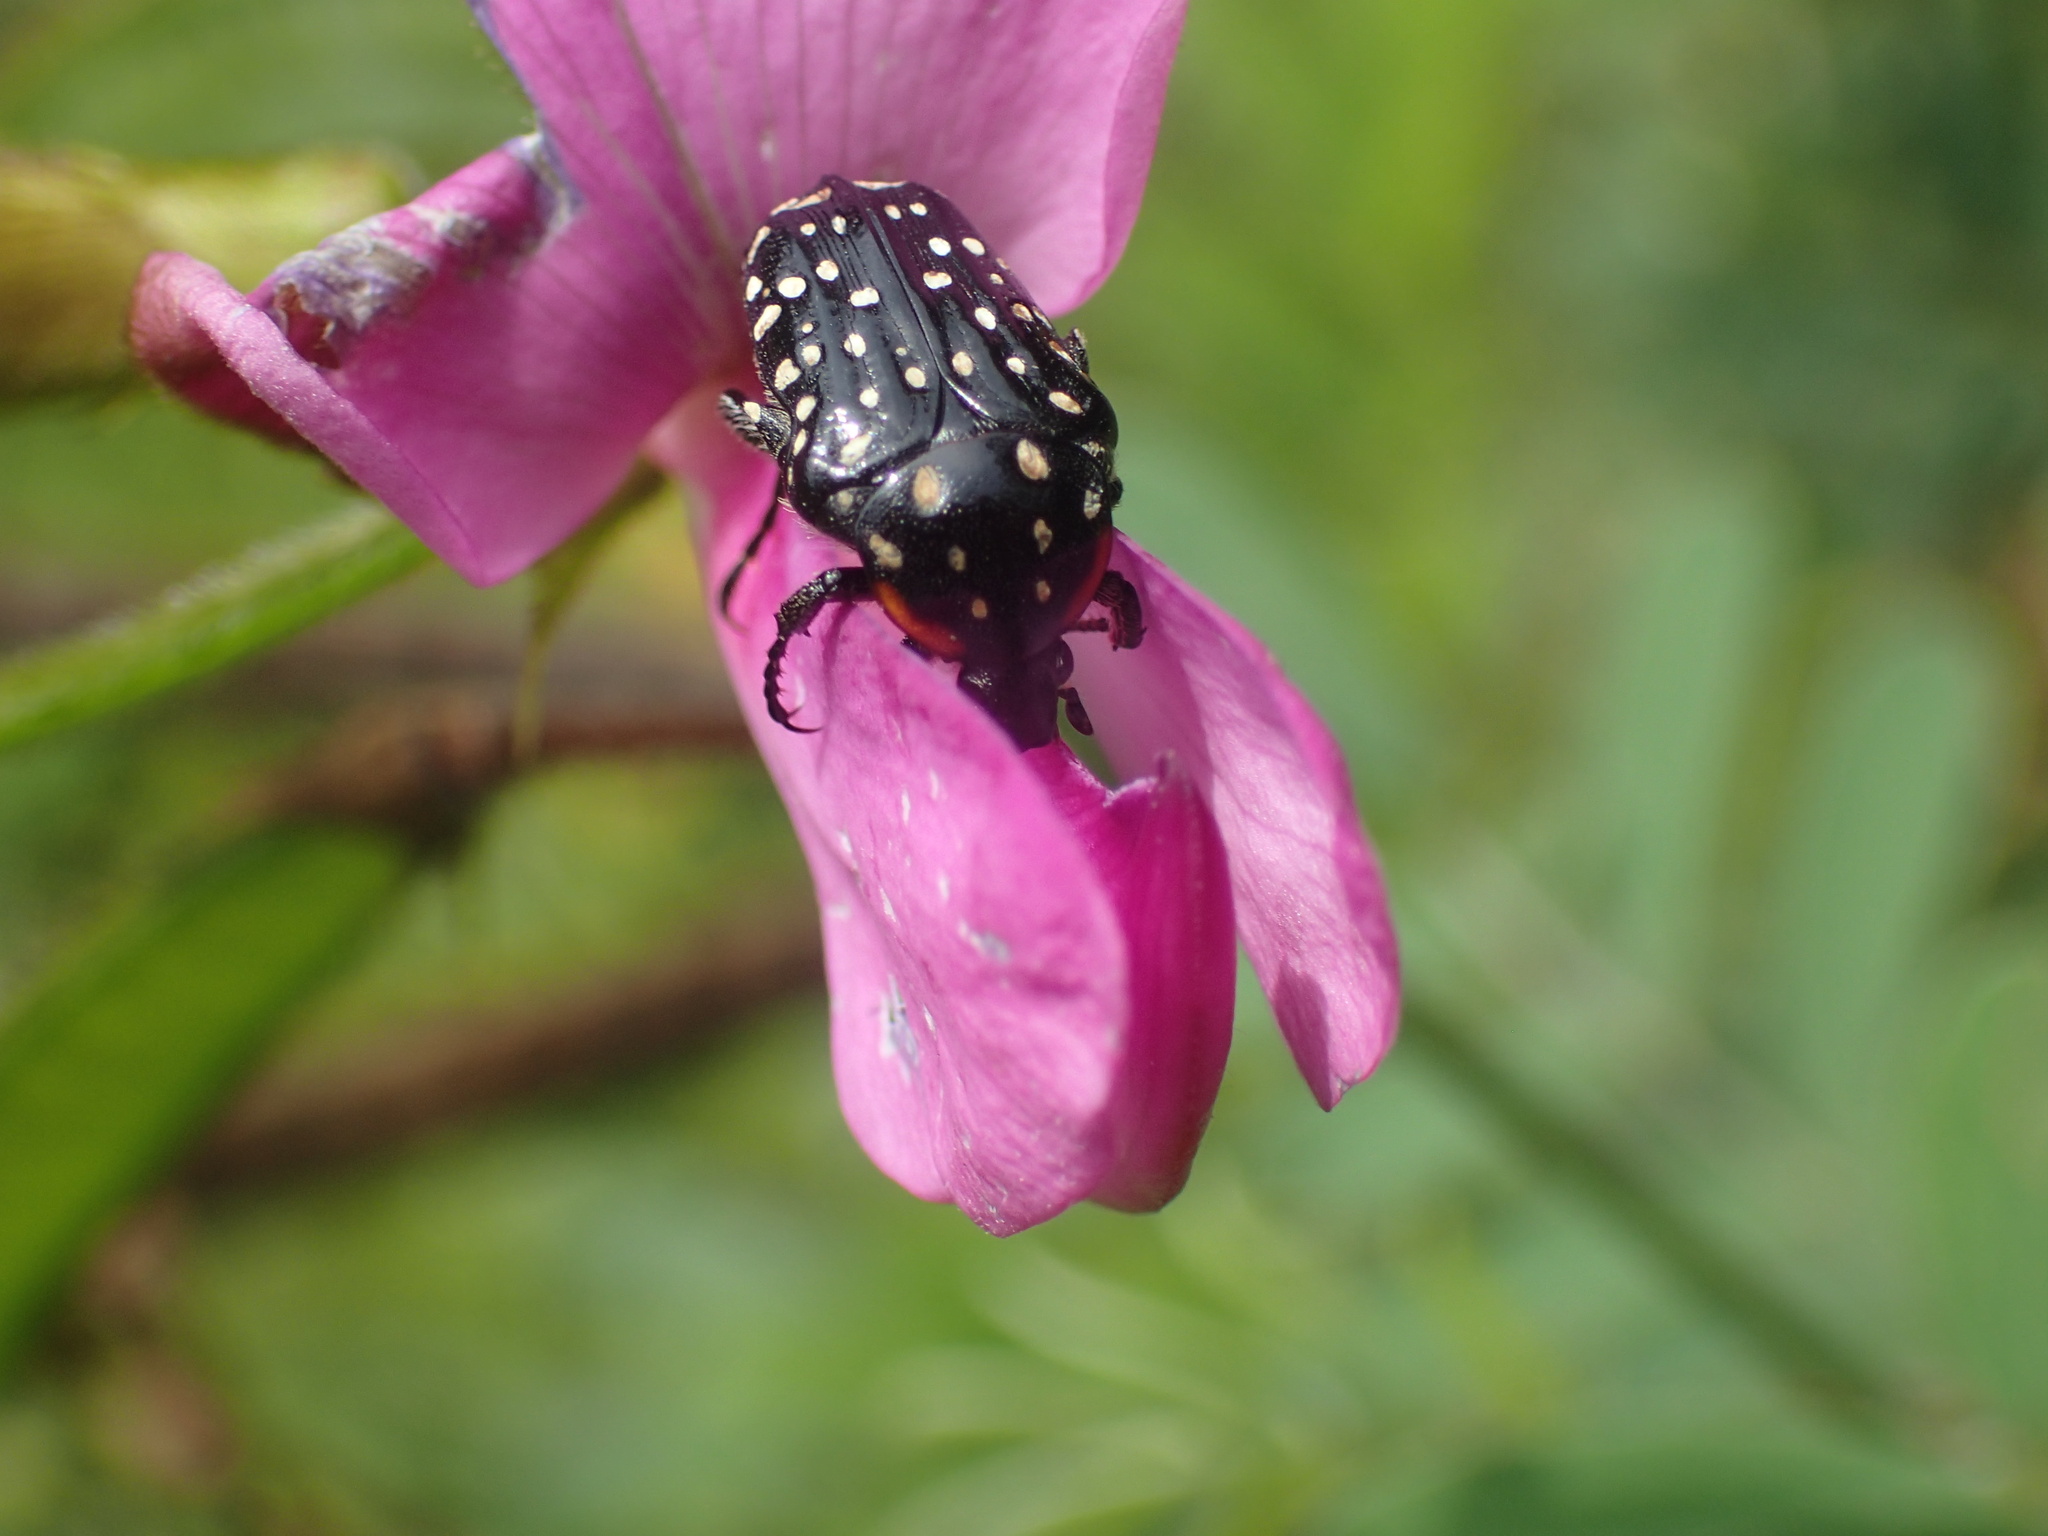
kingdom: Animalia
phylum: Arthropoda
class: Insecta
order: Coleoptera
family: Scarabaeidae
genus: Oxythyrea
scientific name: Oxythyrea
